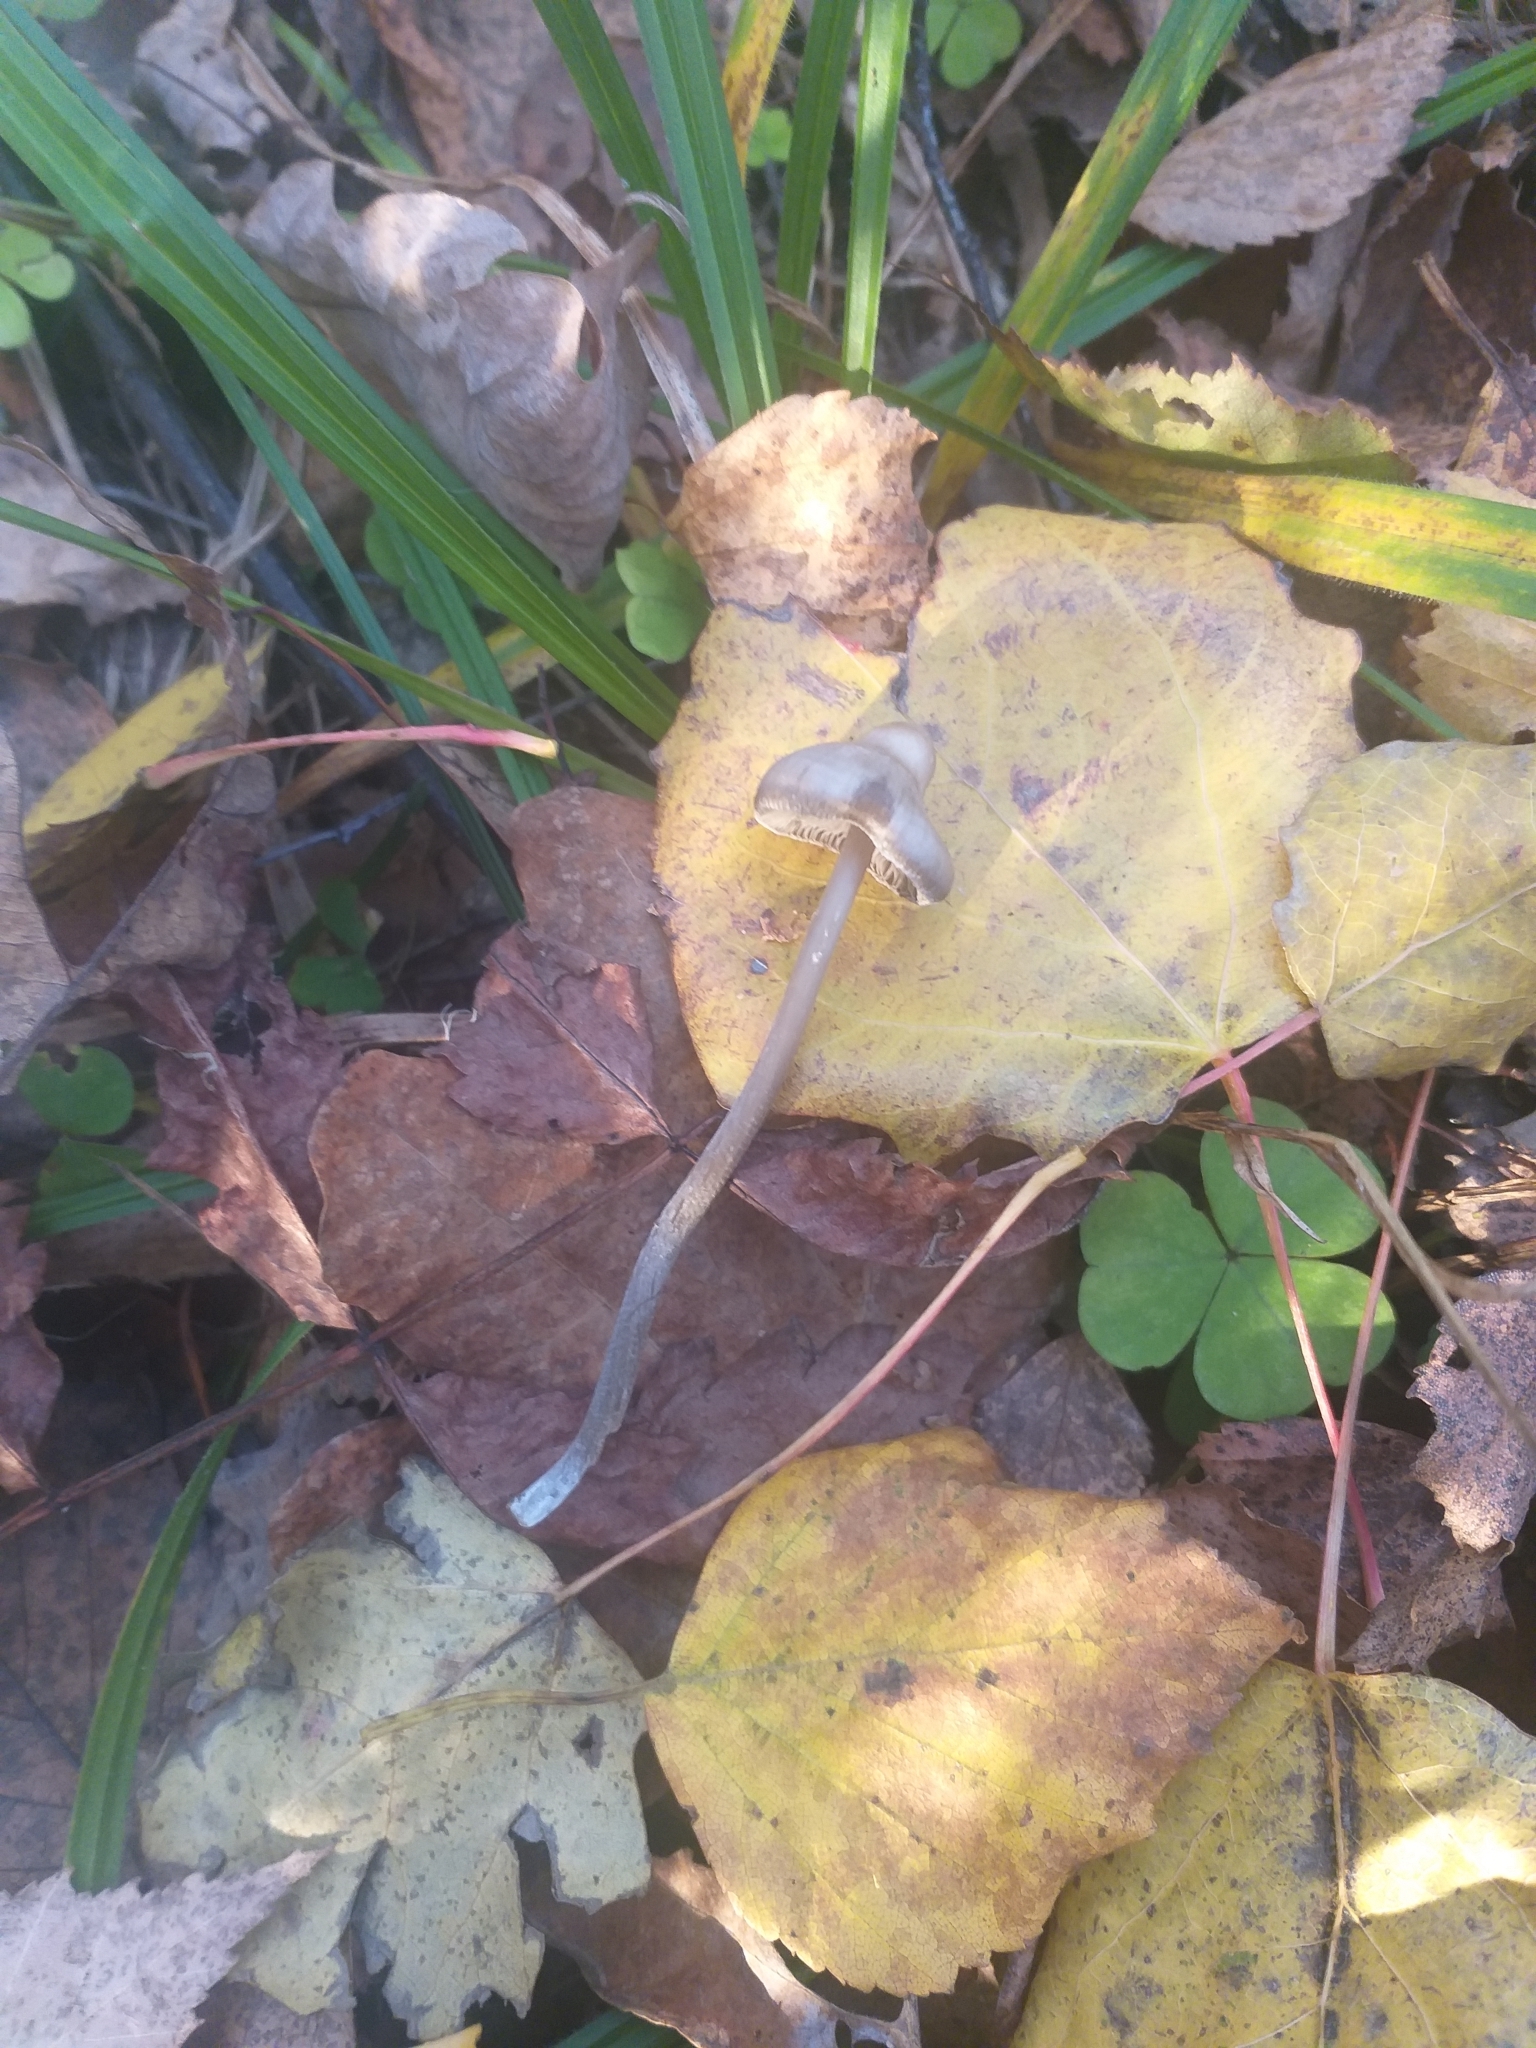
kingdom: Fungi
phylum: Basidiomycota
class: Agaricomycetes
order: Agaricales
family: Lyophyllaceae
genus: Tephrocybe
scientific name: Tephrocybe rancida
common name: Rancid greyling
